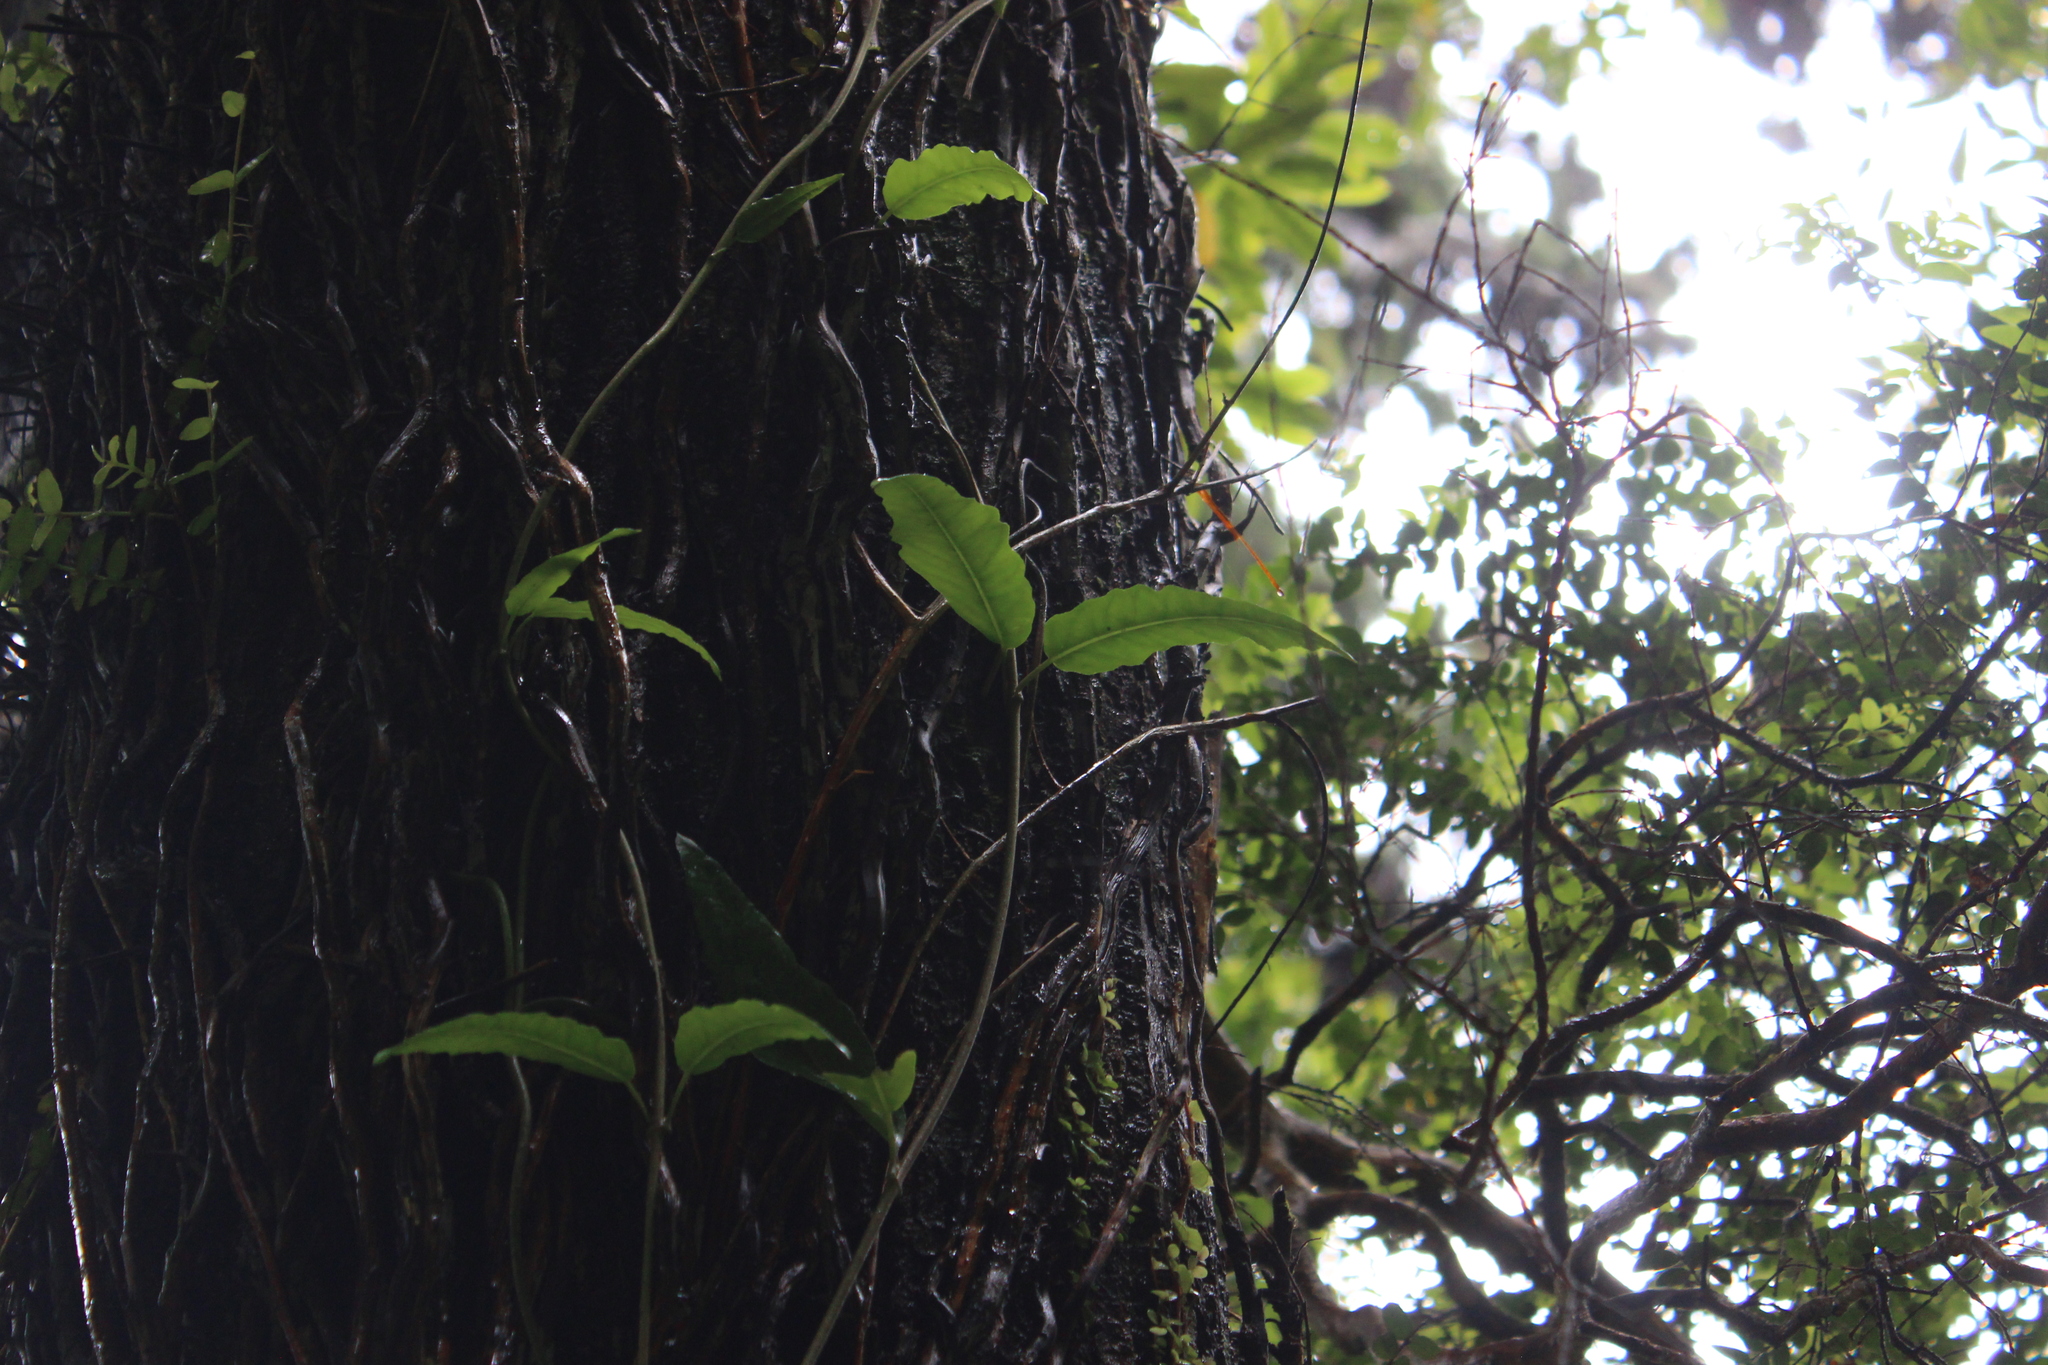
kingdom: Plantae
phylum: Tracheophyta
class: Magnoliopsida
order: Malpighiales
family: Passifloraceae
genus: Passiflora
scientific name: Passiflora tetrandra
